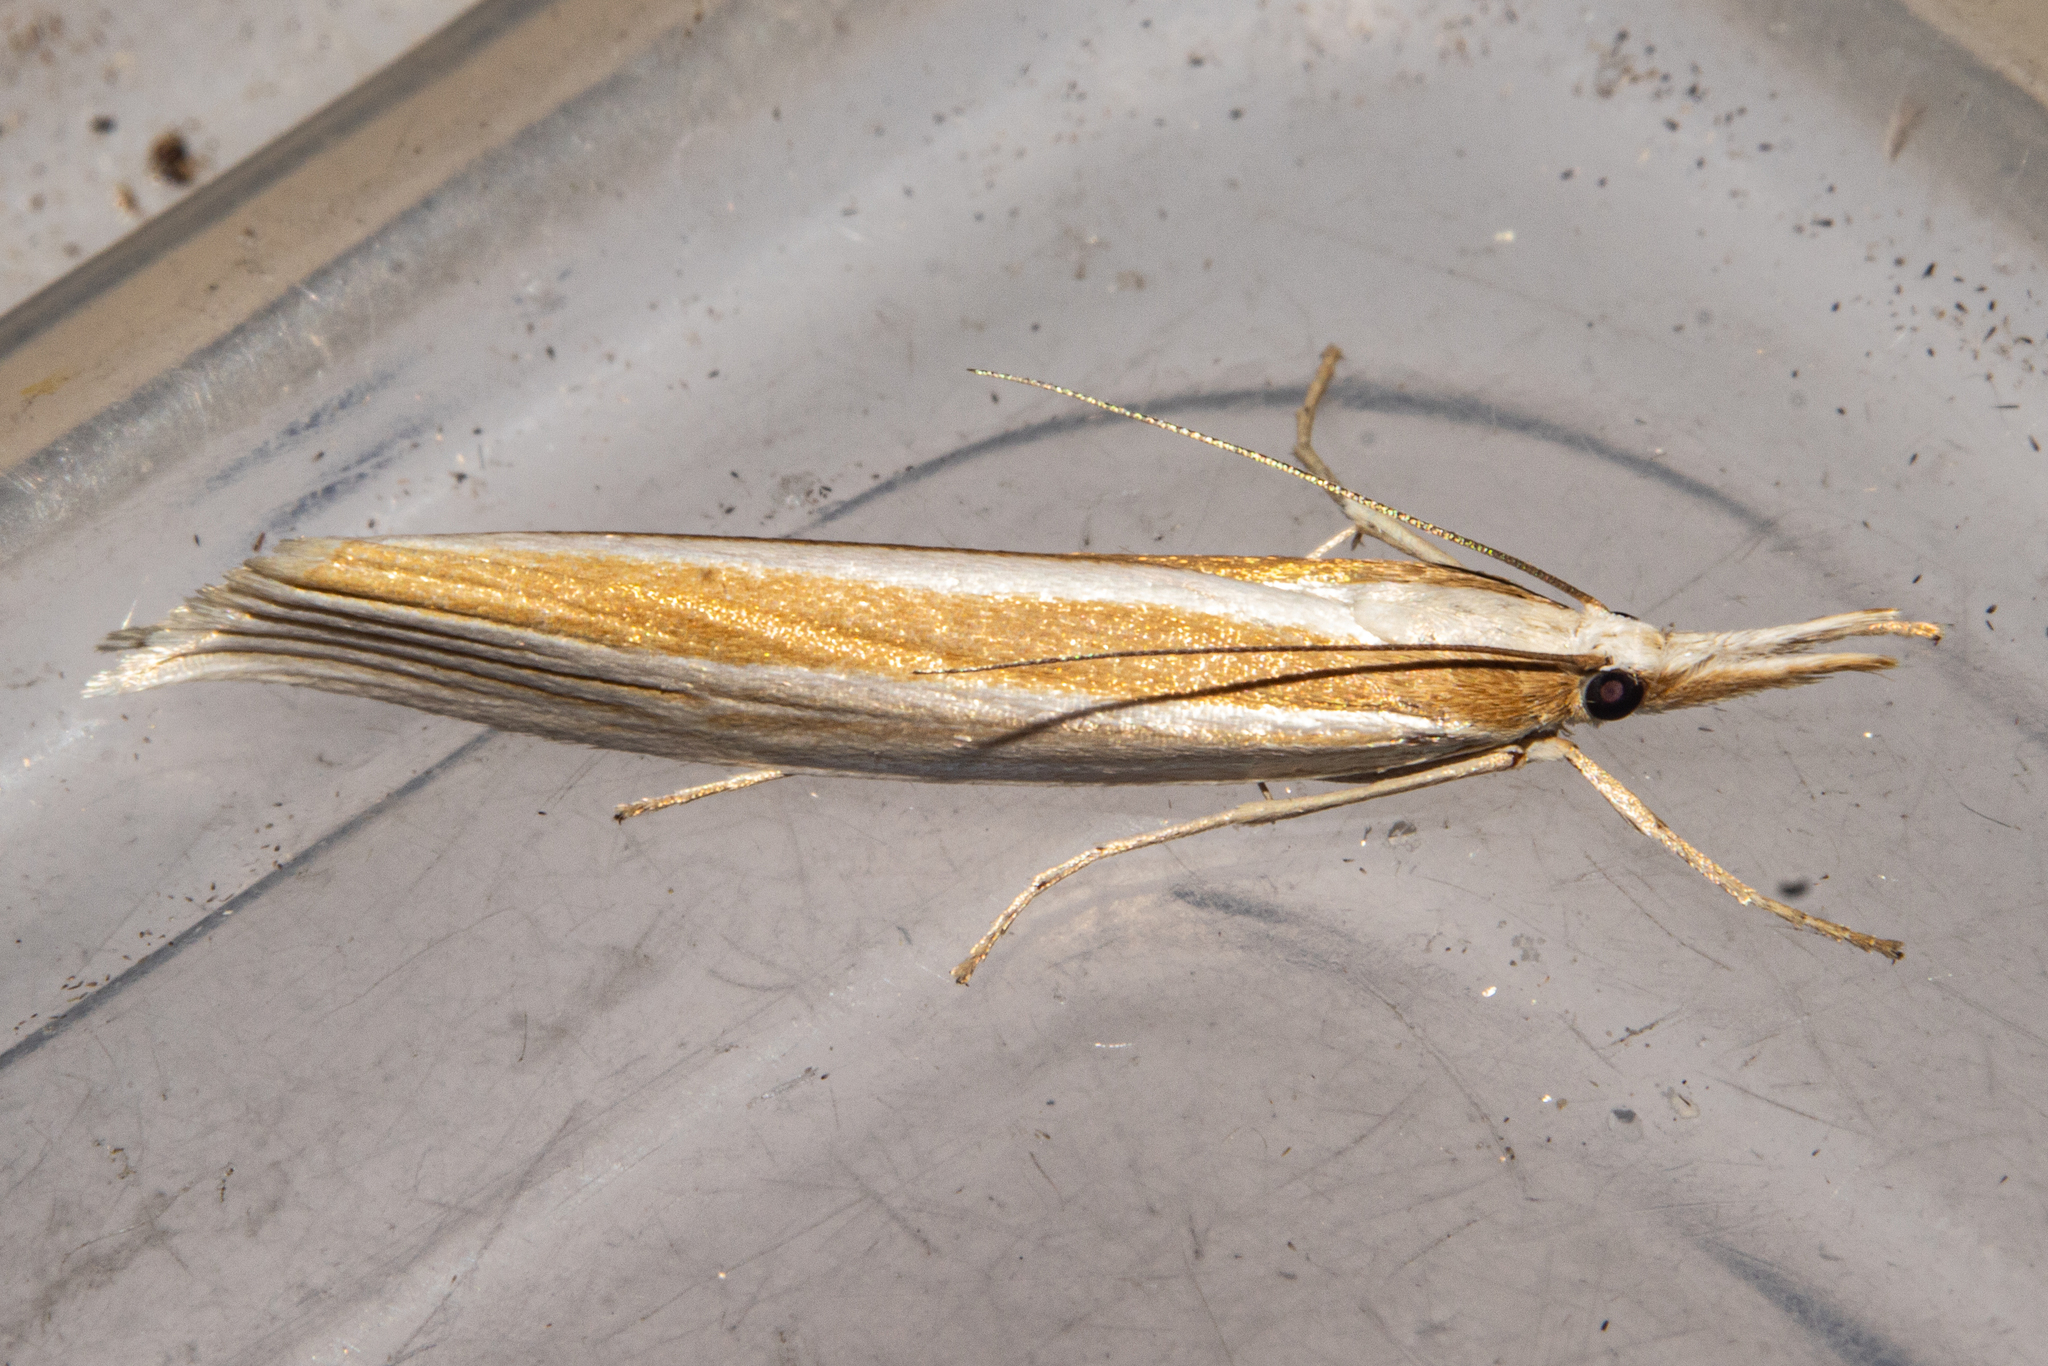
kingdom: Animalia
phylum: Arthropoda
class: Insecta
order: Lepidoptera
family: Crambidae
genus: Orocrambus
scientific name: Orocrambus ephorus
